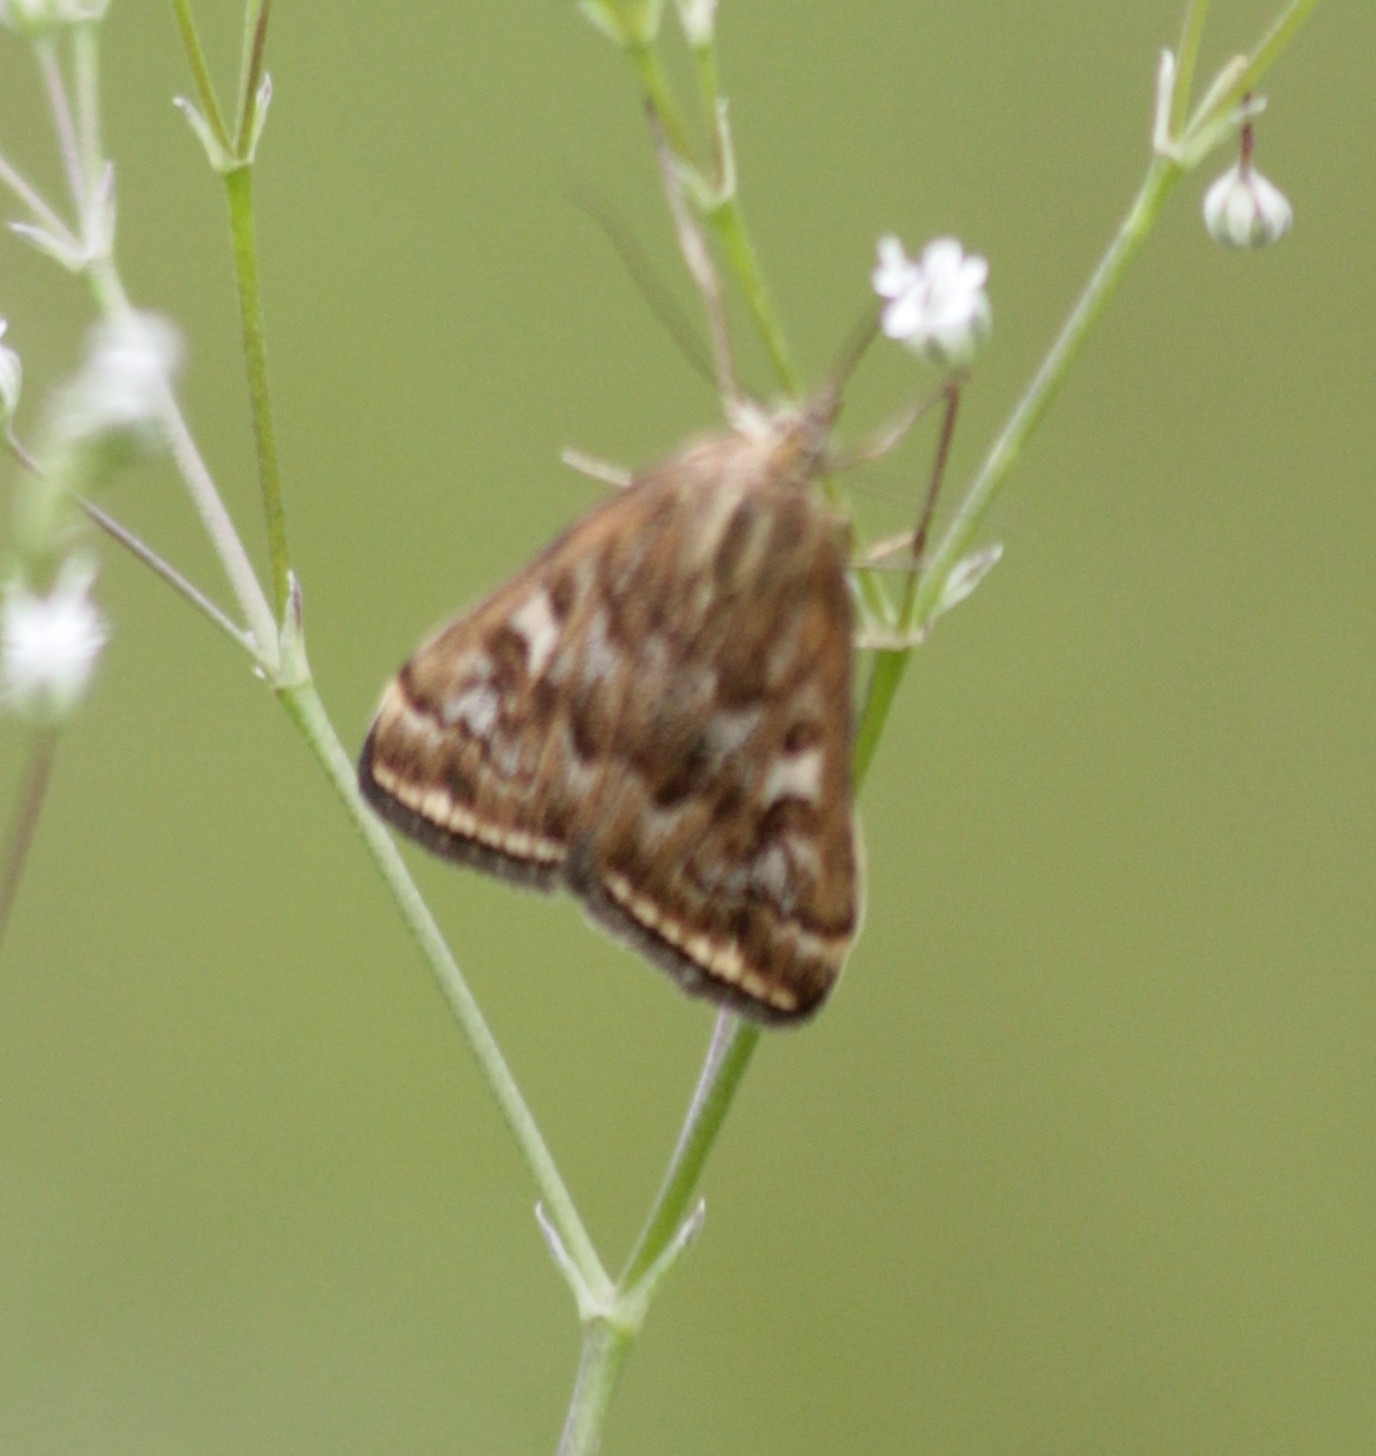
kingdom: Animalia
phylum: Arthropoda
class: Insecta
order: Lepidoptera
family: Crambidae
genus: Loxostege
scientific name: Loxostege sticticalis
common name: Crambid moth
